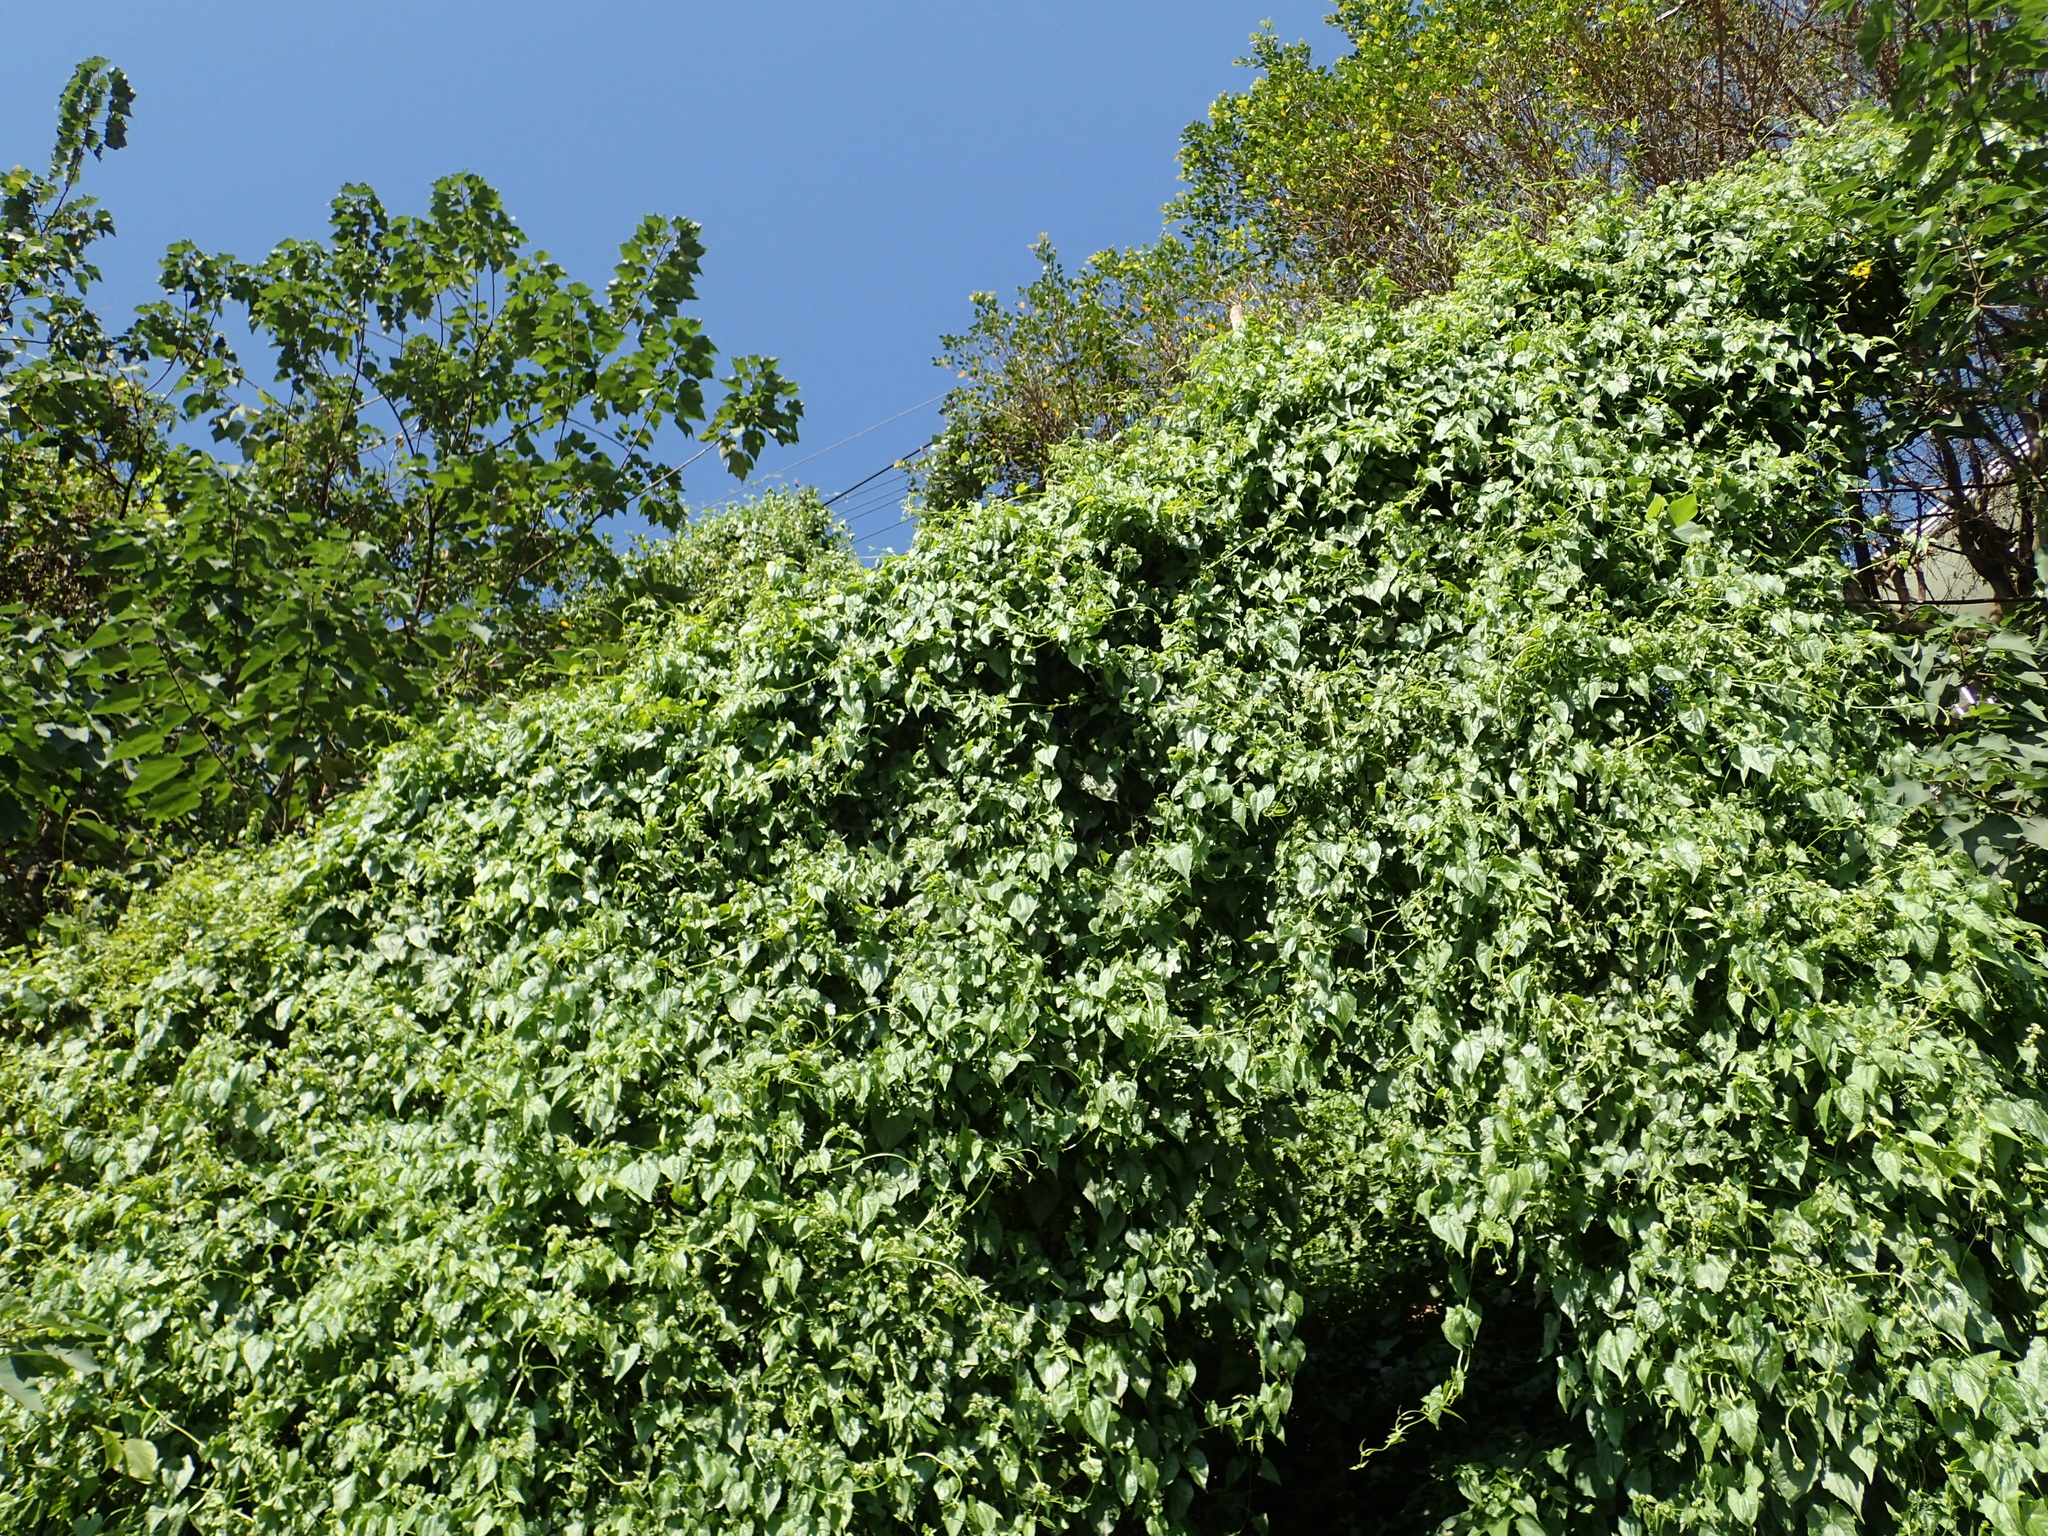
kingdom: Plantae
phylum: Tracheophyta
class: Magnoliopsida
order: Asterales
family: Asteraceae
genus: Mikania
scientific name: Mikania micrantha
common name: Mile-a-minute
